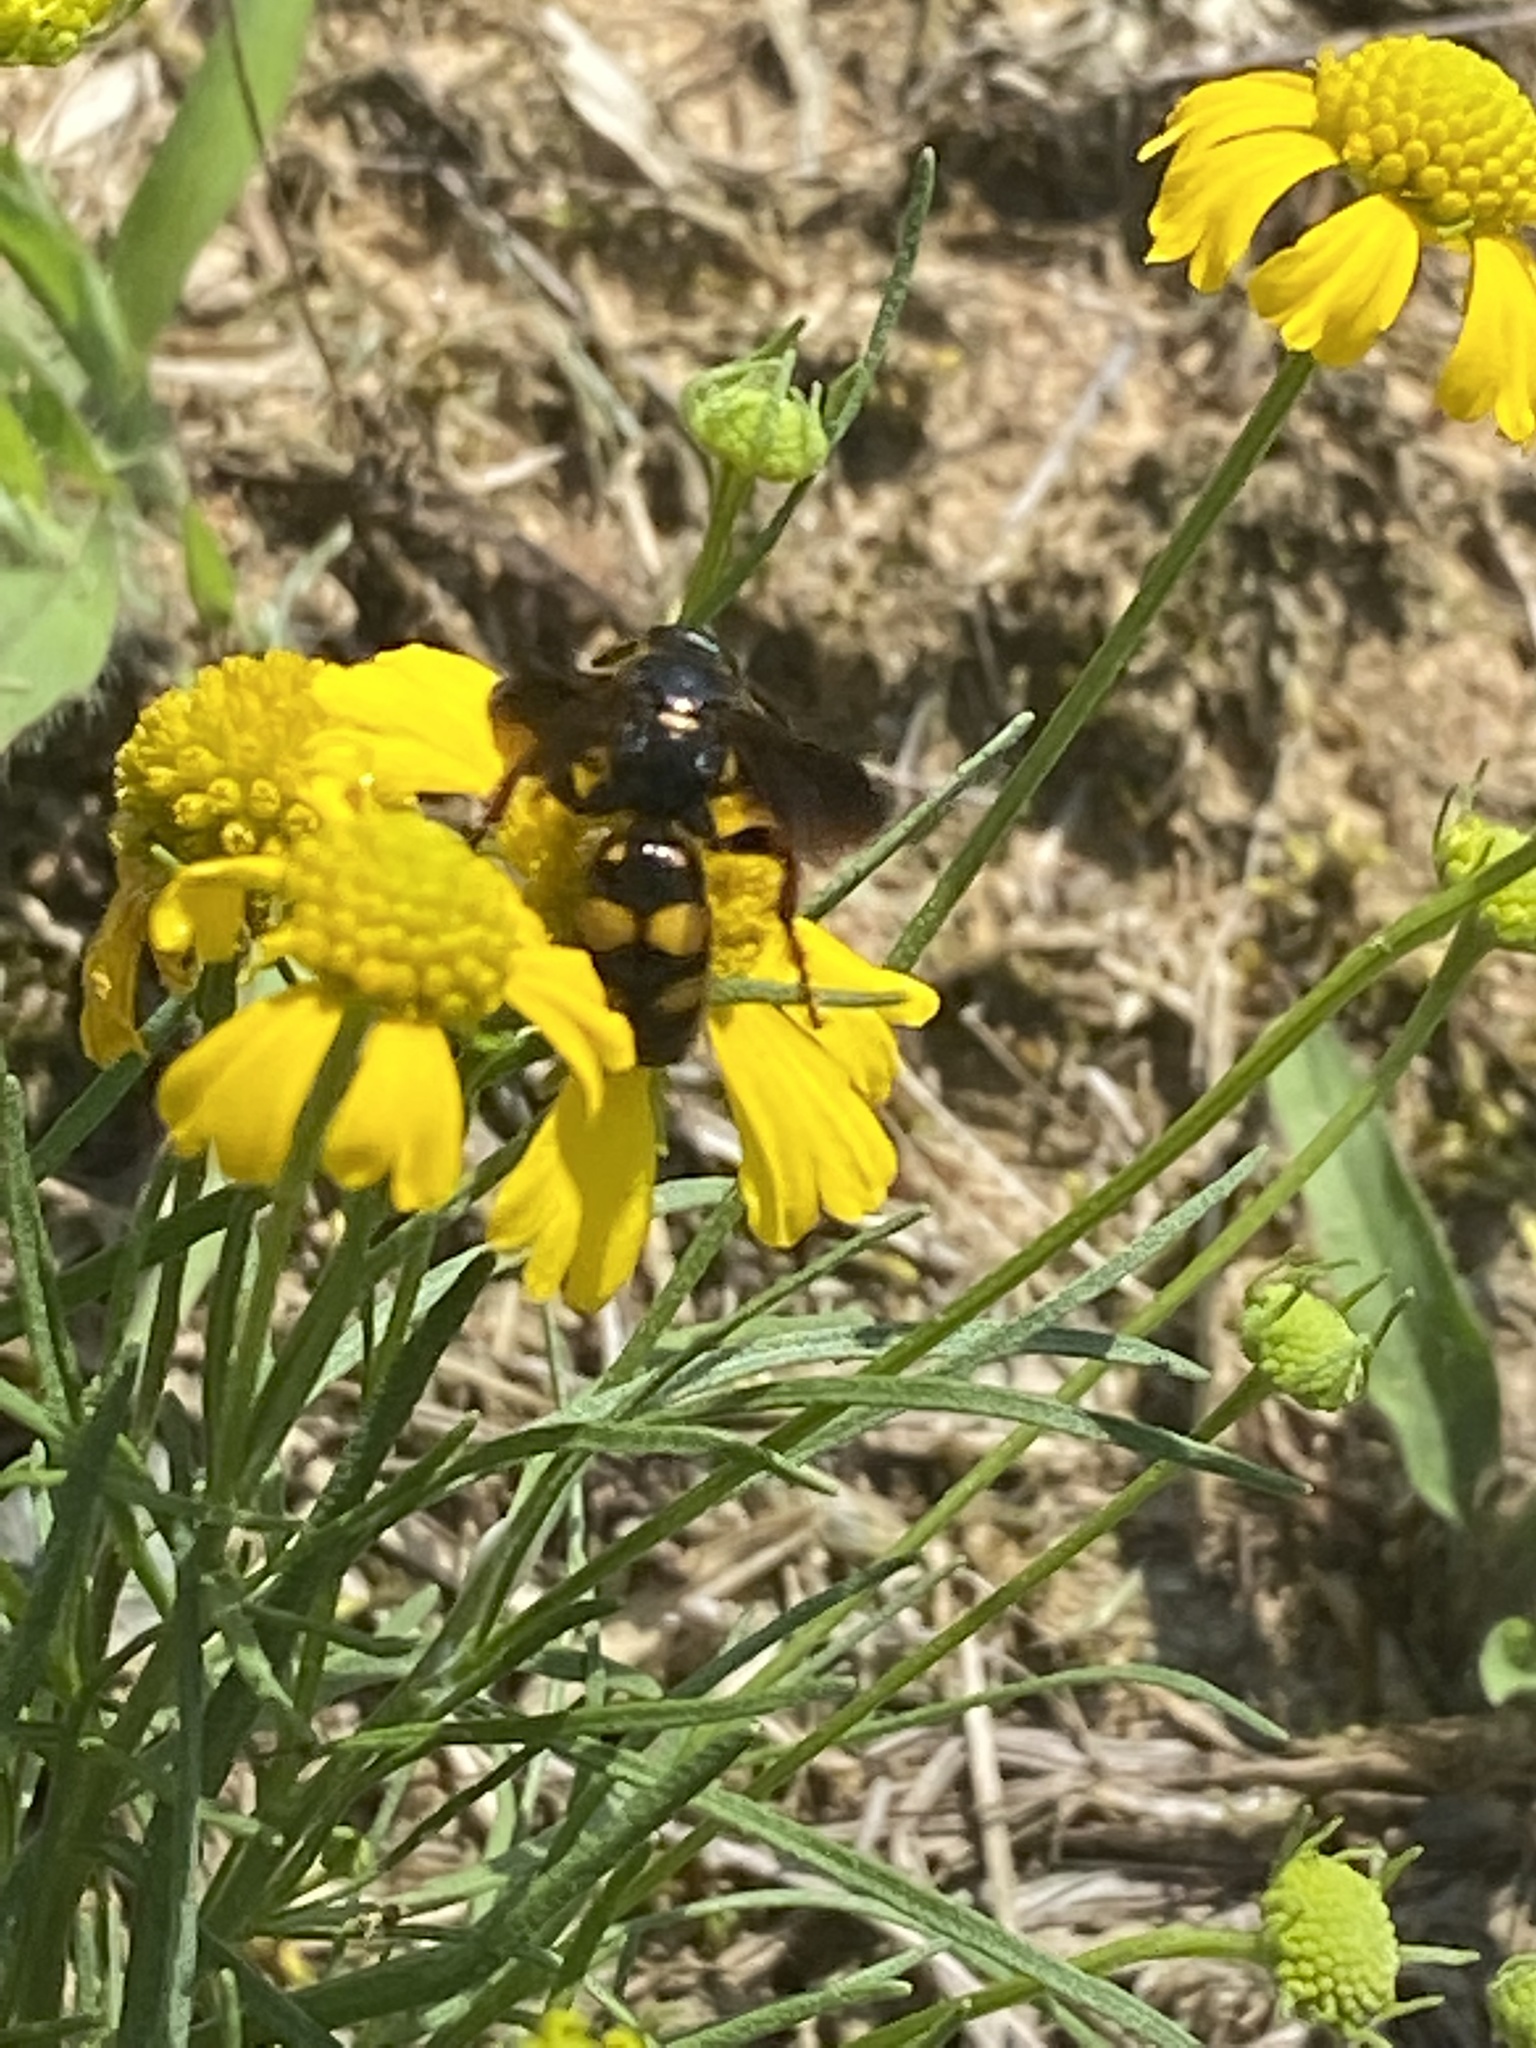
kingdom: Animalia
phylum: Arthropoda
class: Insecta
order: Hymenoptera
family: Scoliidae
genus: Scolia
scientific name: Scolia nobilitata
